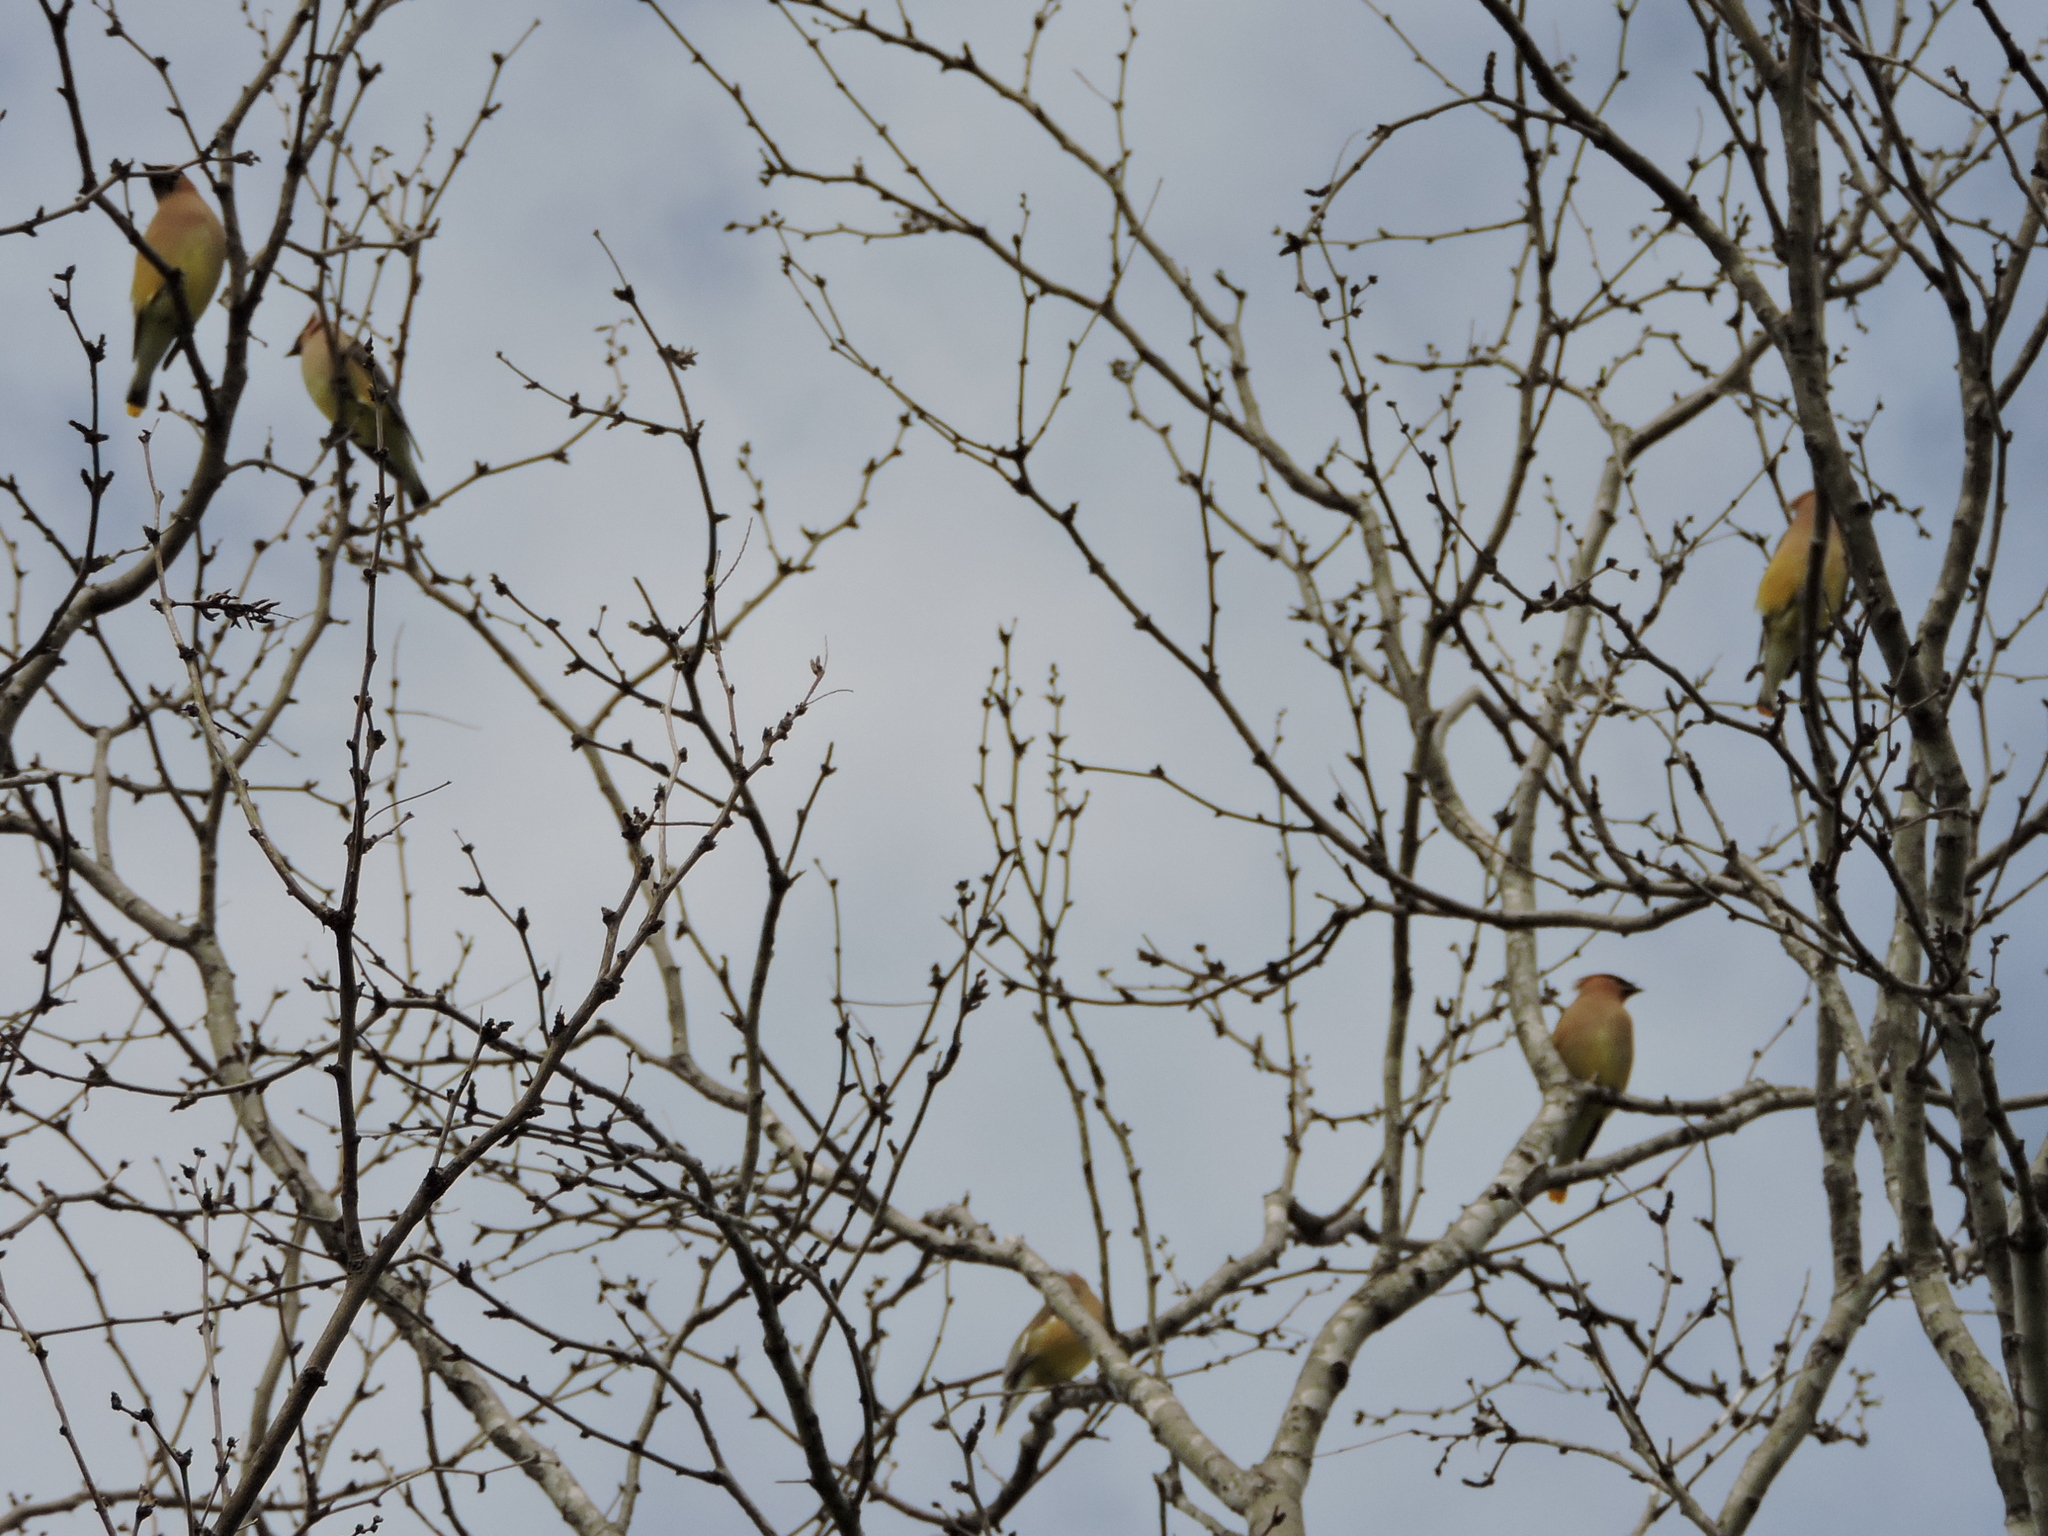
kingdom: Animalia
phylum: Chordata
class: Aves
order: Passeriformes
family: Bombycillidae
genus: Bombycilla
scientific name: Bombycilla cedrorum
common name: Cedar waxwing
